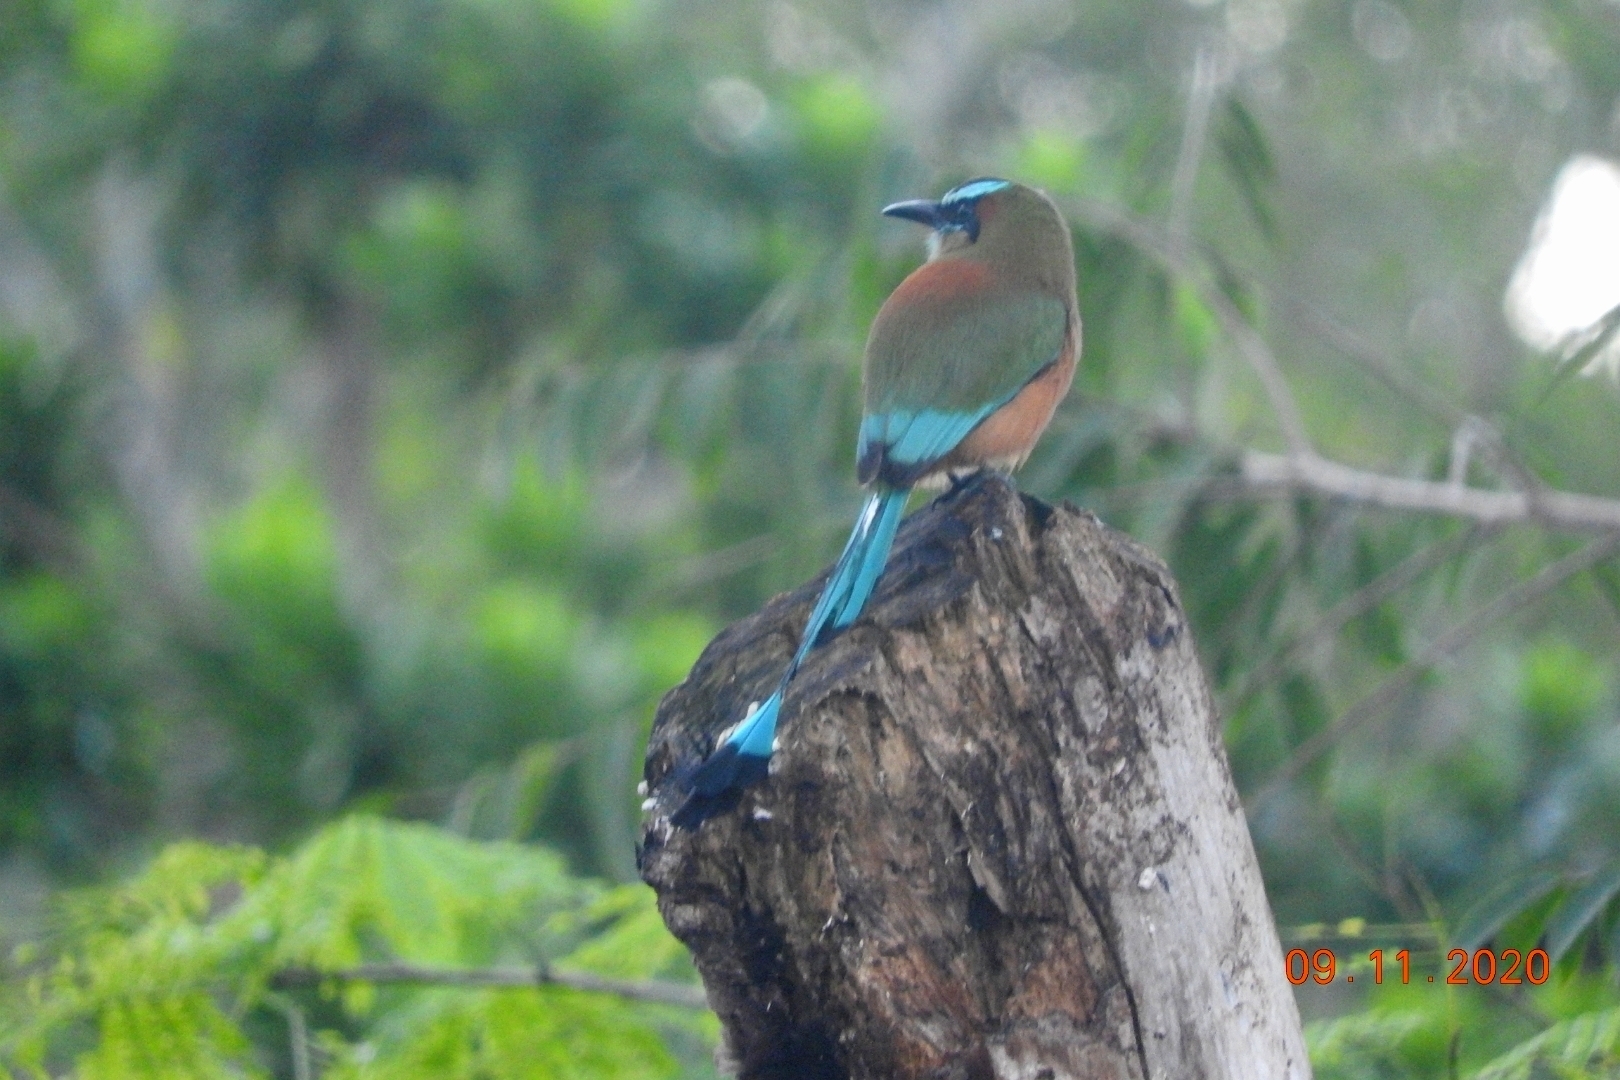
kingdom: Animalia
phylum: Chordata
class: Aves
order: Coraciiformes
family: Momotidae
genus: Eumomota
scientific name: Eumomota superciliosa
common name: Turquoise-browed motmot
